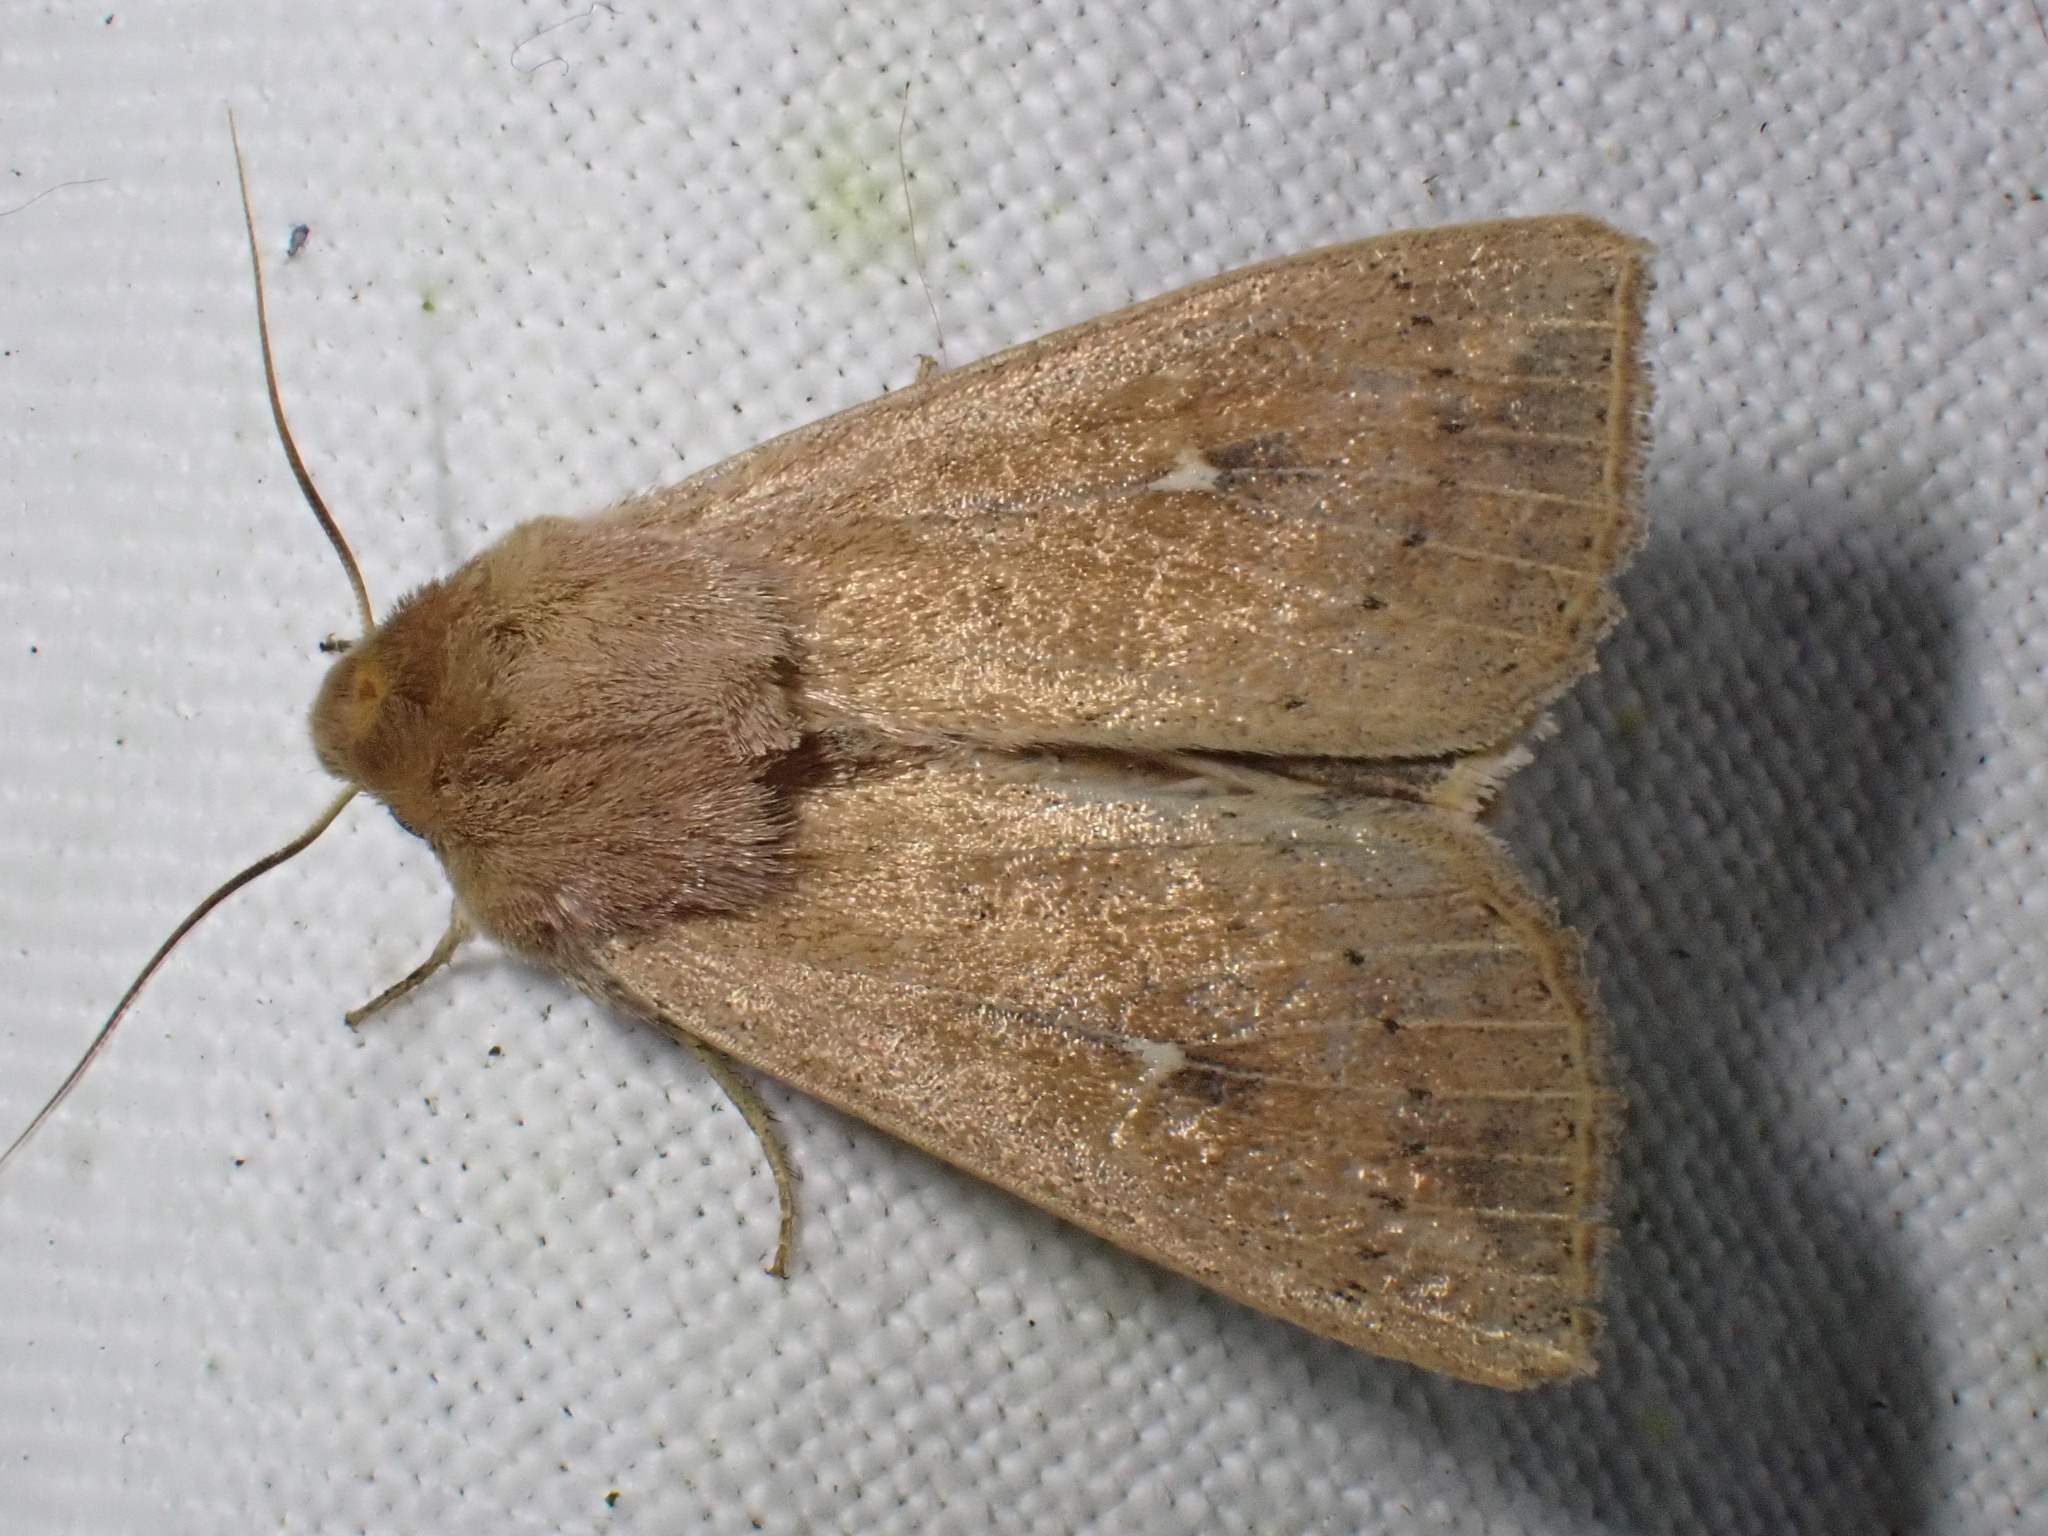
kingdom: Animalia
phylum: Arthropoda
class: Insecta
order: Lepidoptera
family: Noctuidae
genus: Mythimna
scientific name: Mythimna ferrago
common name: Clay
